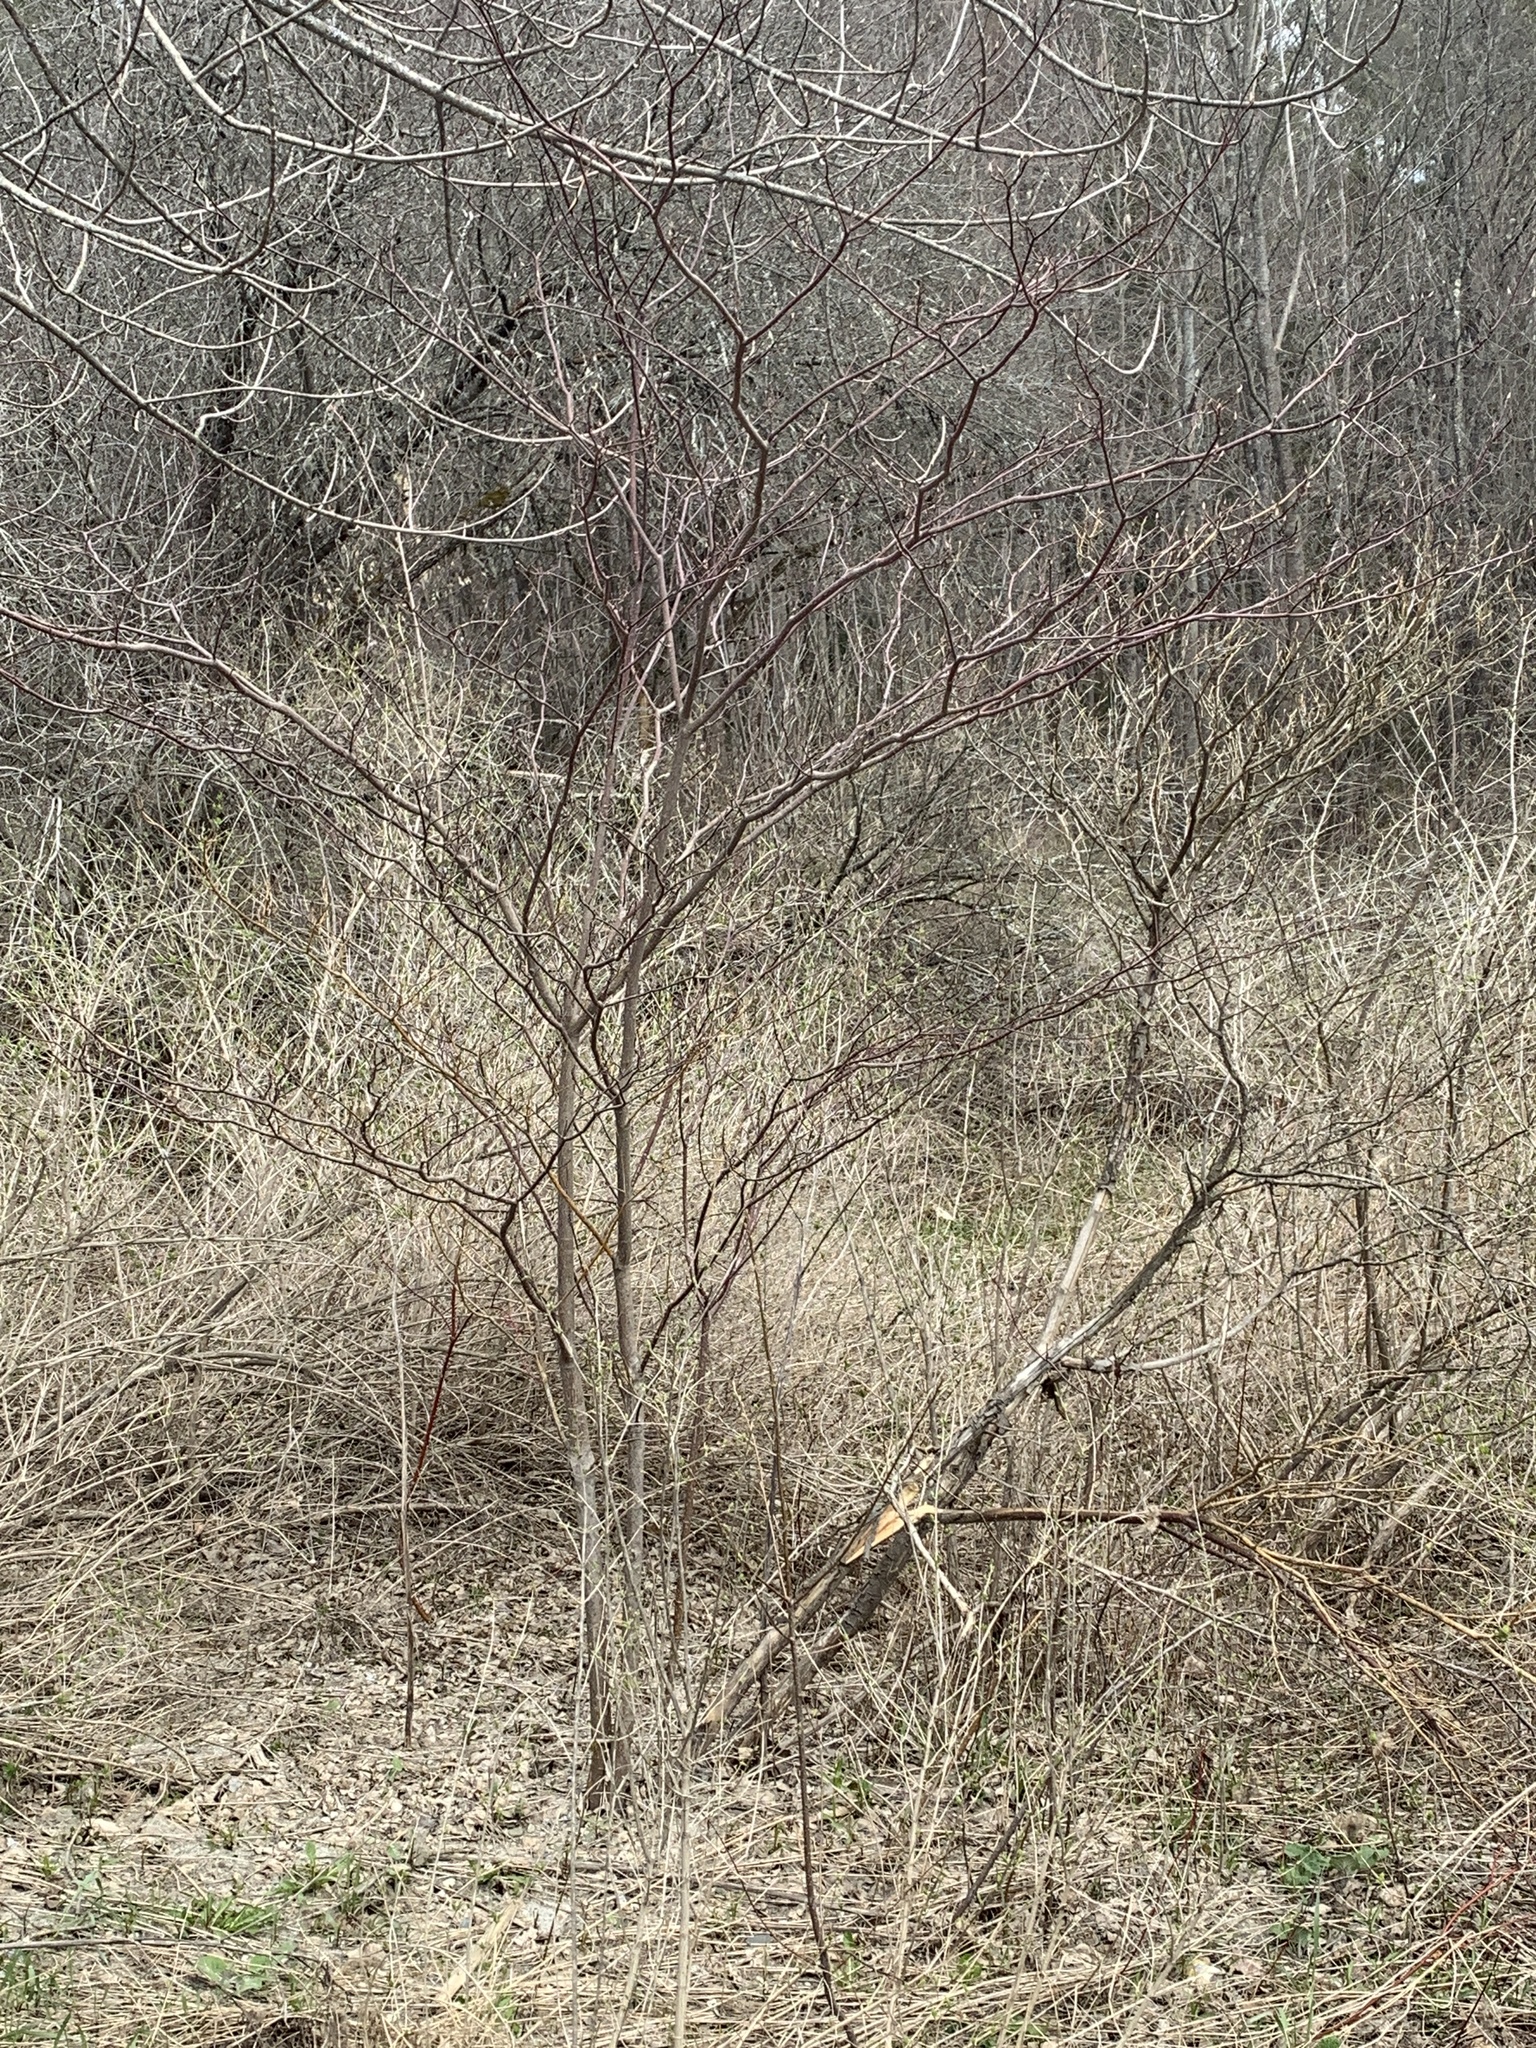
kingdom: Plantae
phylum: Tracheophyta
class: Magnoliopsida
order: Cornales
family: Cornaceae
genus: Cornus
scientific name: Cornus alternifolia
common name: Pagoda dogwood
